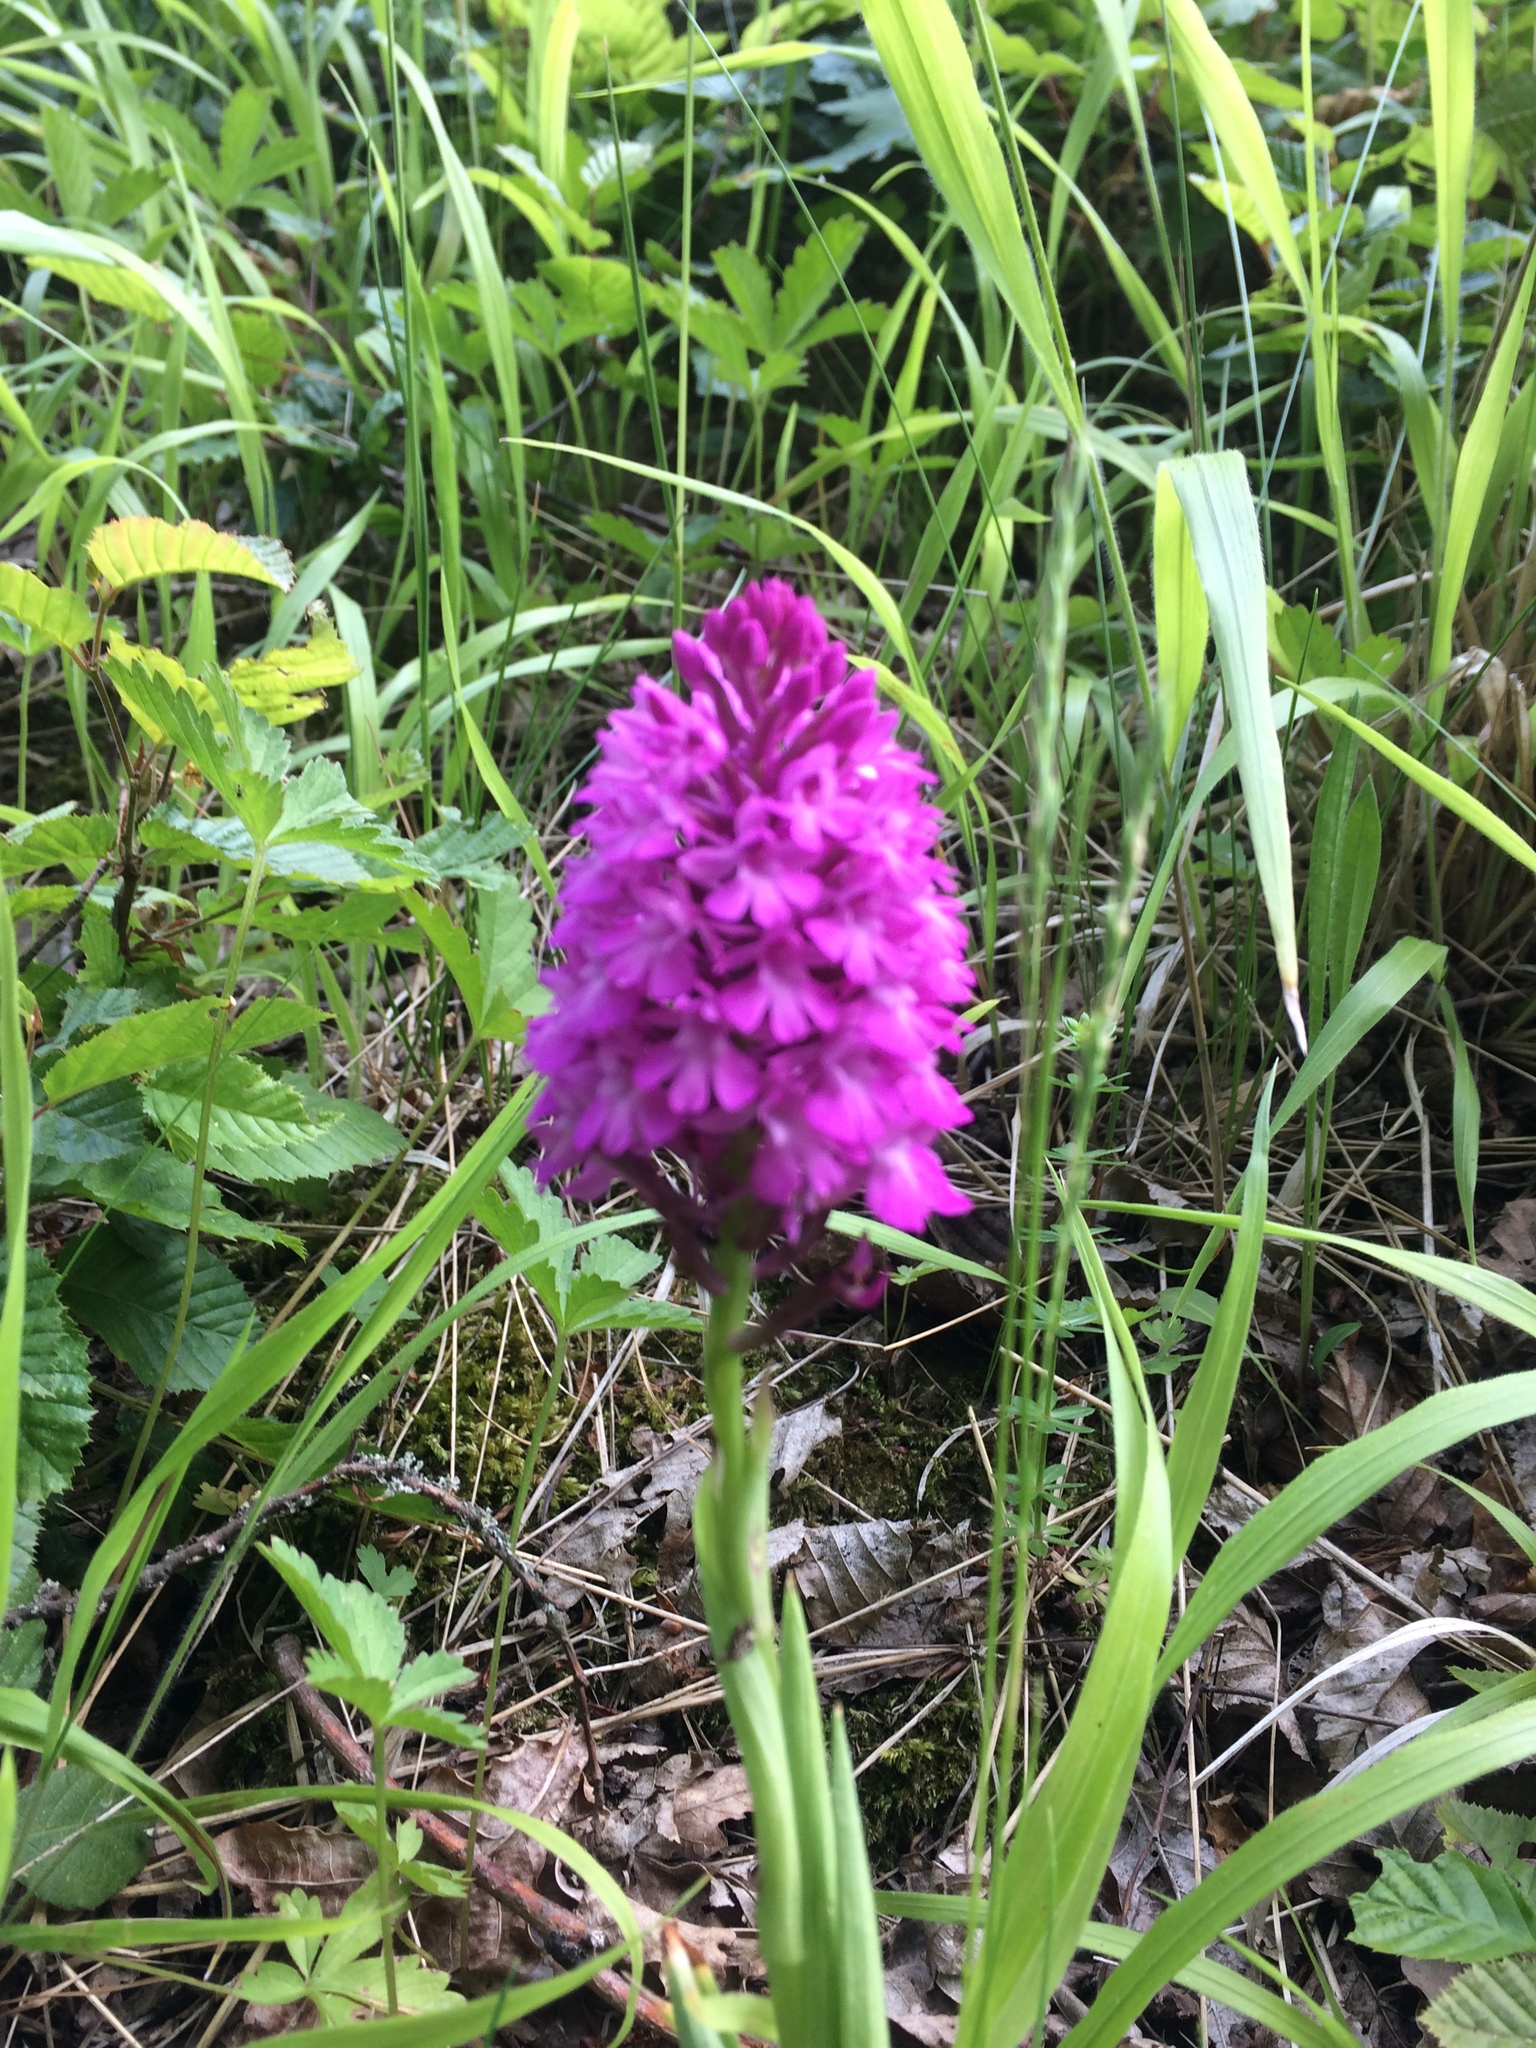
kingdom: Plantae
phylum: Tracheophyta
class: Liliopsida
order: Asparagales
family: Orchidaceae
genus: Anacamptis
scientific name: Anacamptis pyramidalis
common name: Pyramidal orchid
